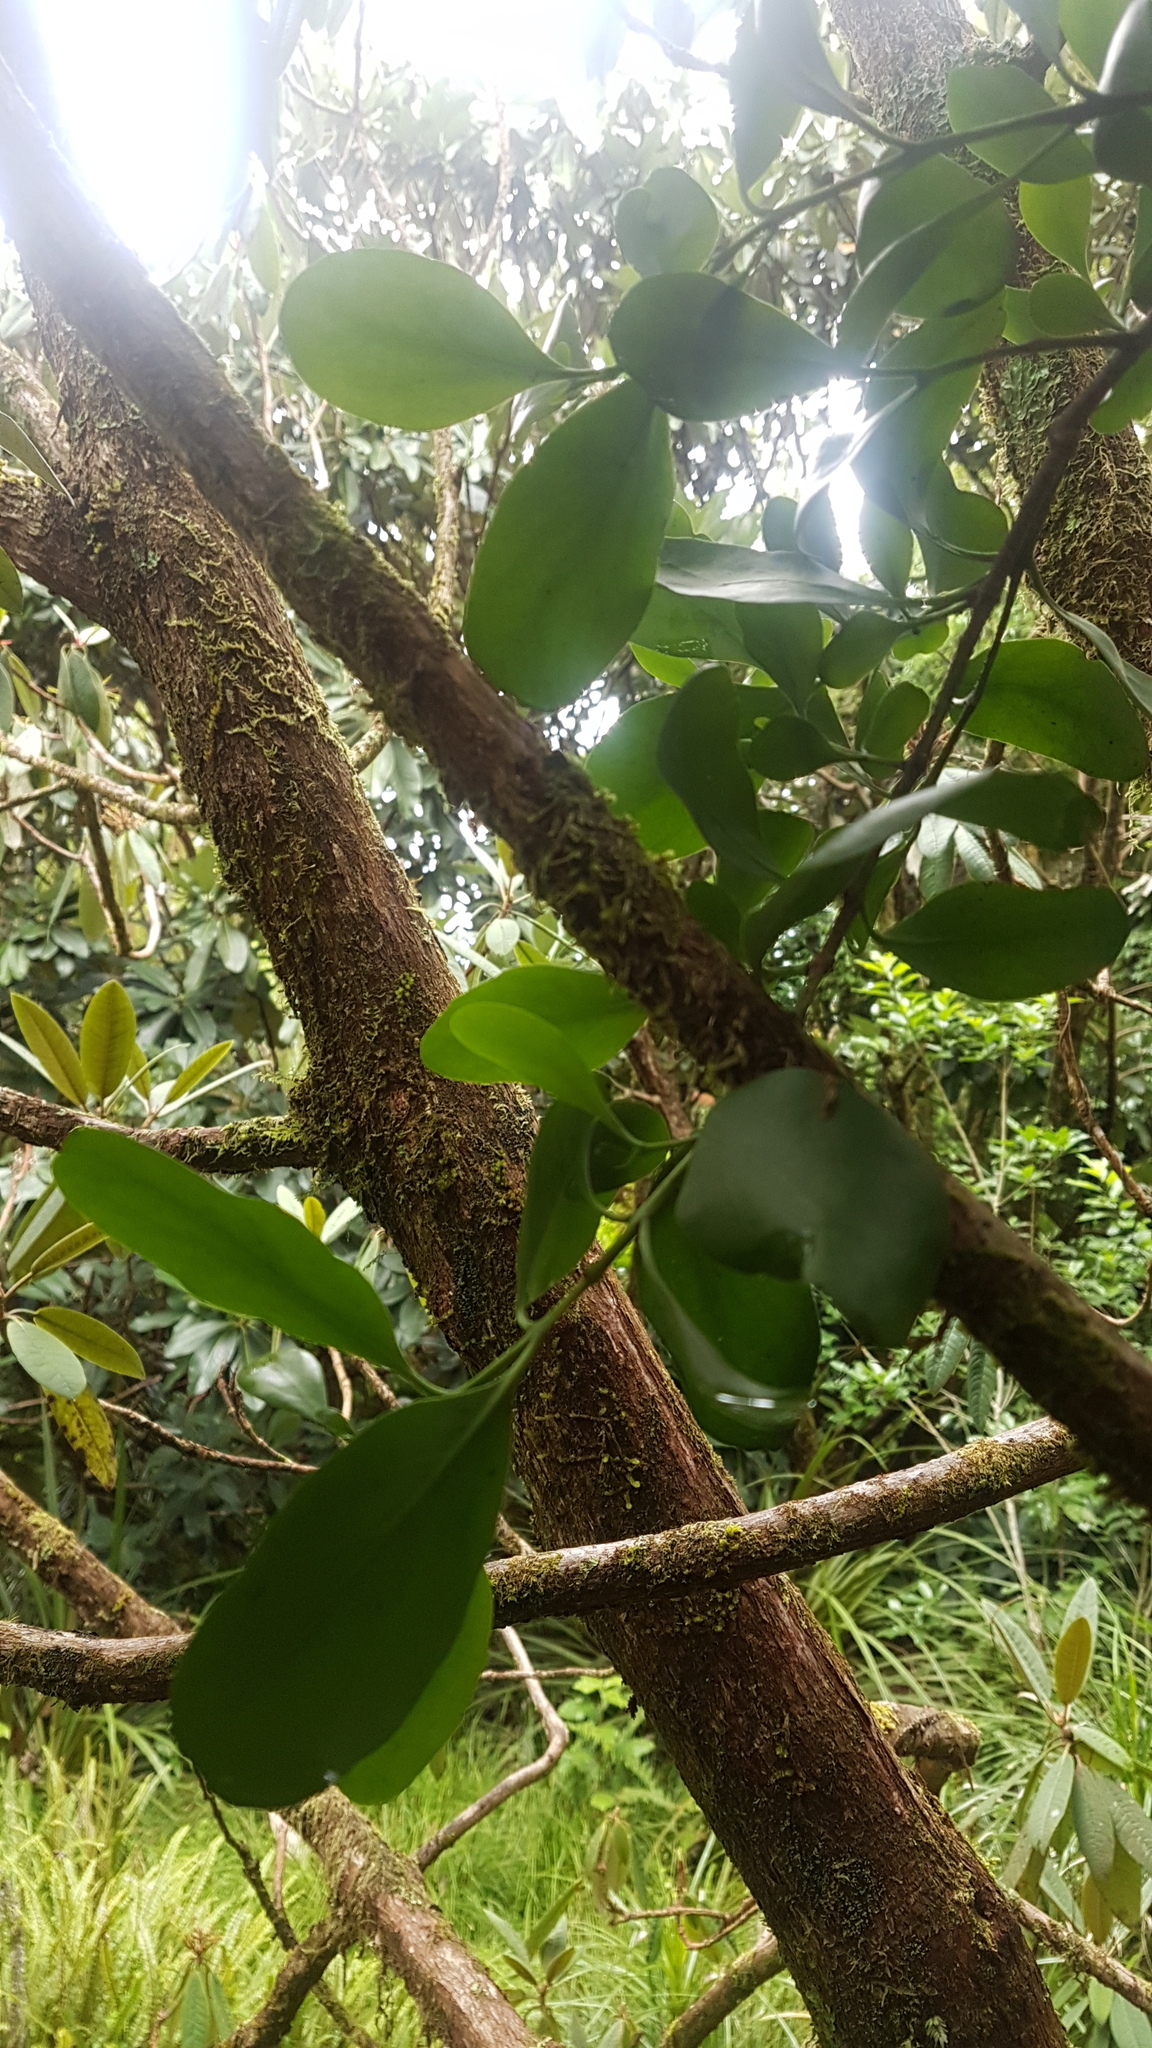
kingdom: Plantae
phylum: Tracheophyta
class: Magnoliopsida
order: Santalales
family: Loranthaceae
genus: Ileostylus
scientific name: Ileostylus micranthus
